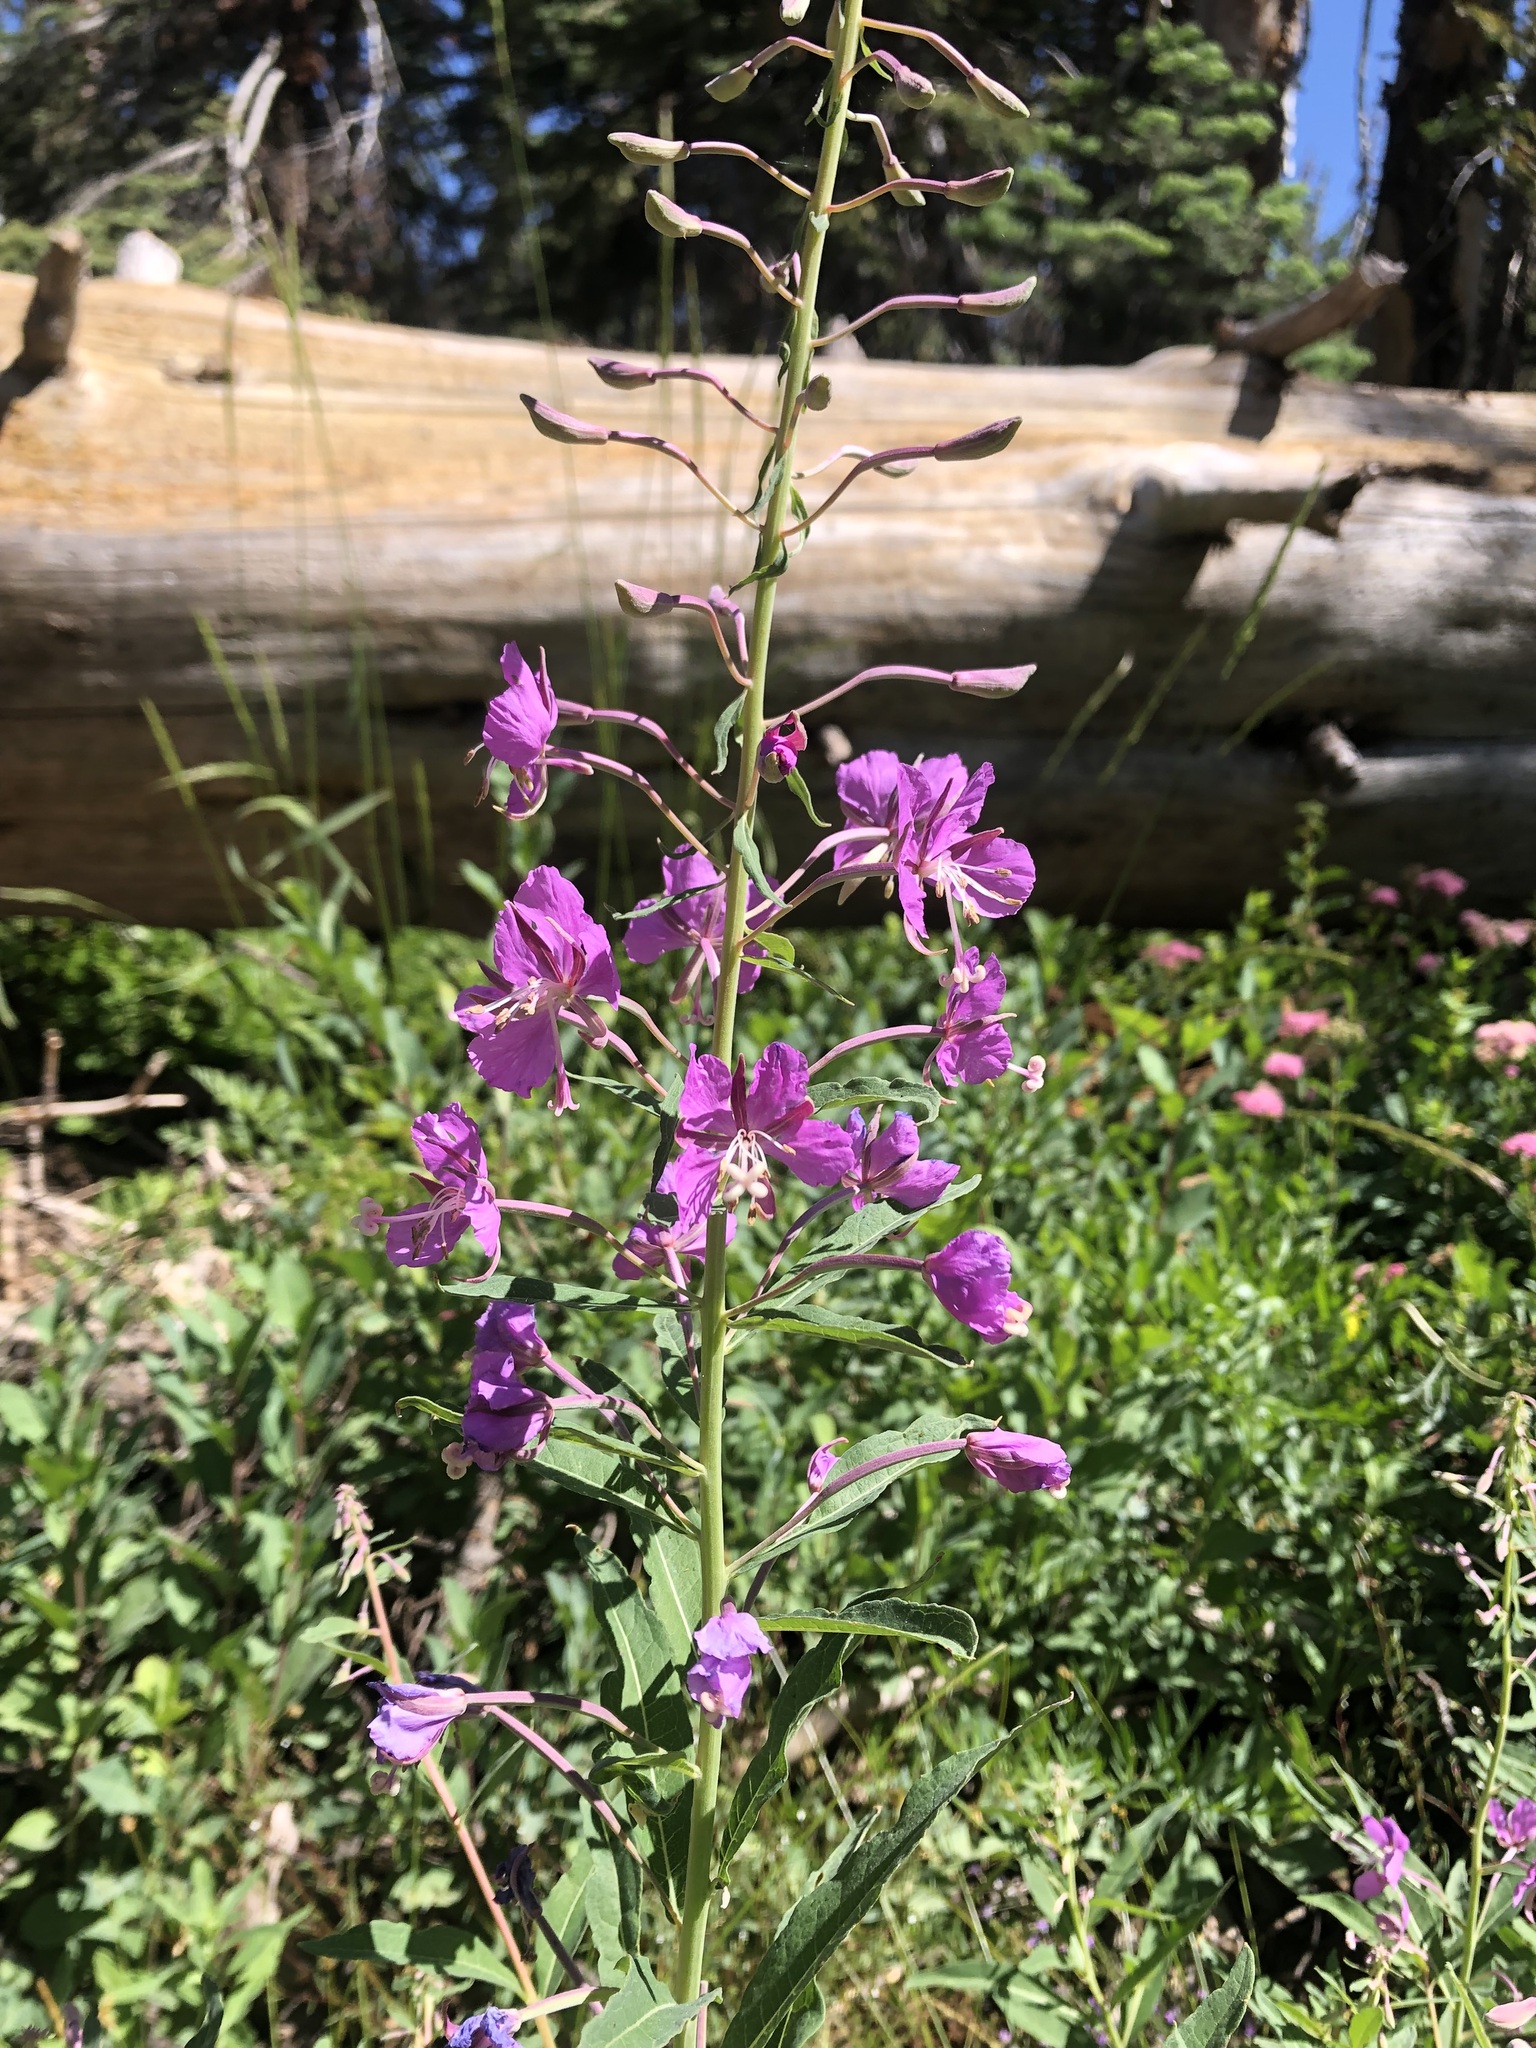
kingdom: Plantae
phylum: Tracheophyta
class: Magnoliopsida
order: Myrtales
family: Onagraceae
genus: Chamaenerion
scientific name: Chamaenerion angustifolium
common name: Fireweed
